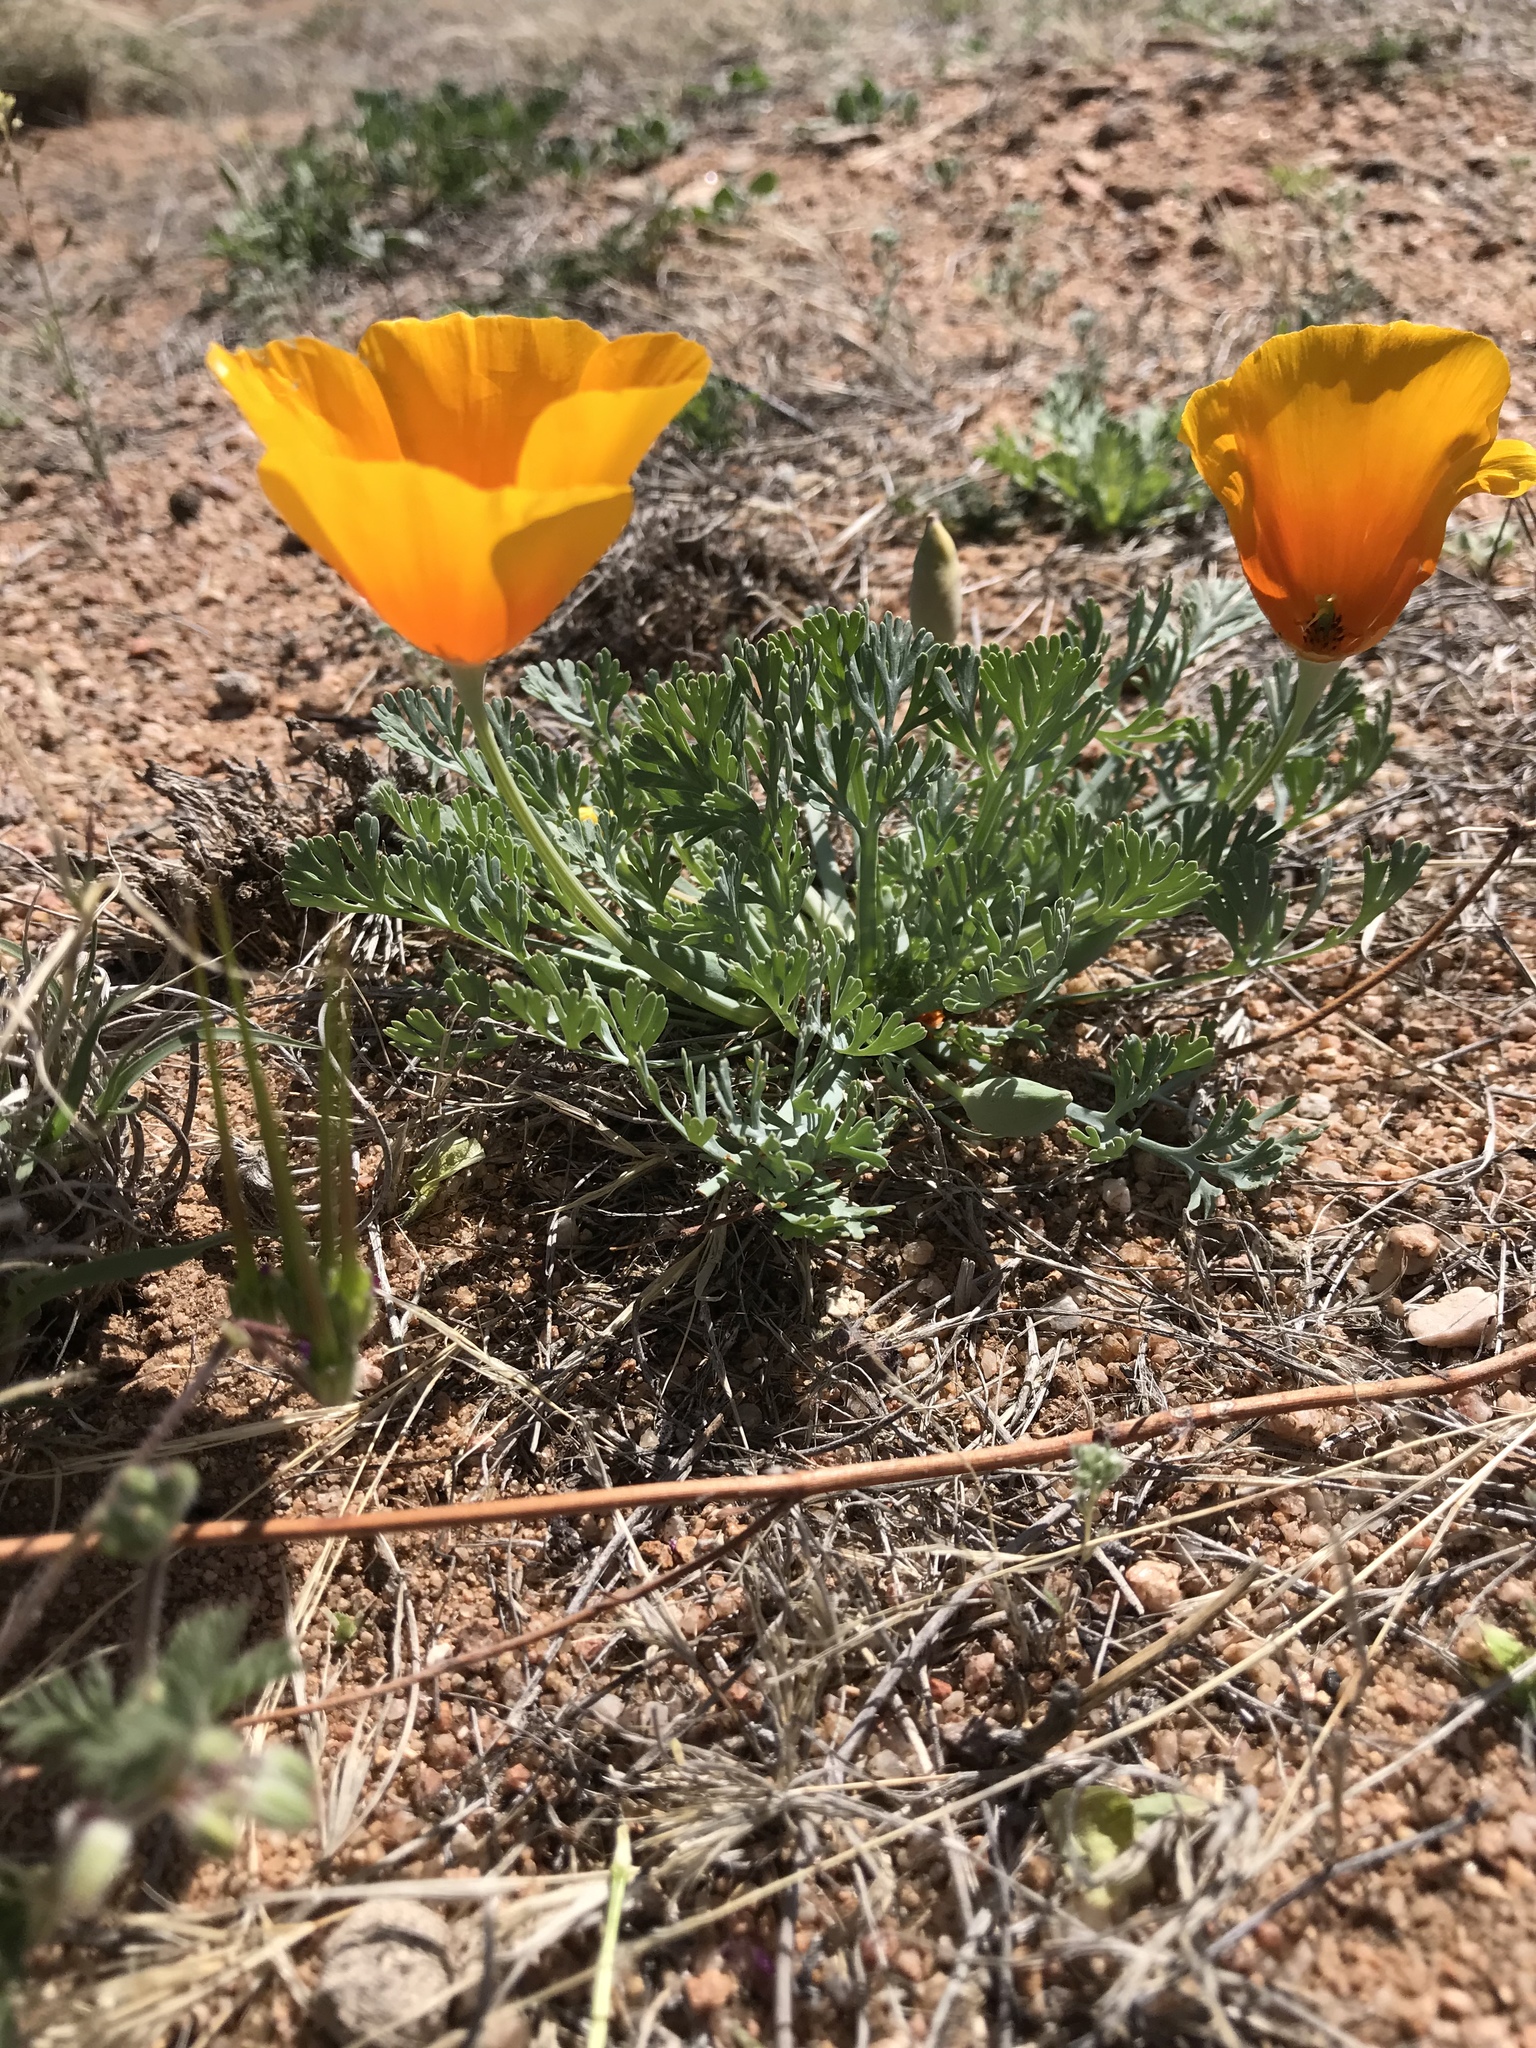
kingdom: Plantae
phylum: Tracheophyta
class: Magnoliopsida
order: Ranunculales
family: Papaveraceae
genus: Eschscholzia
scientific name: Eschscholzia californica
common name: California poppy
